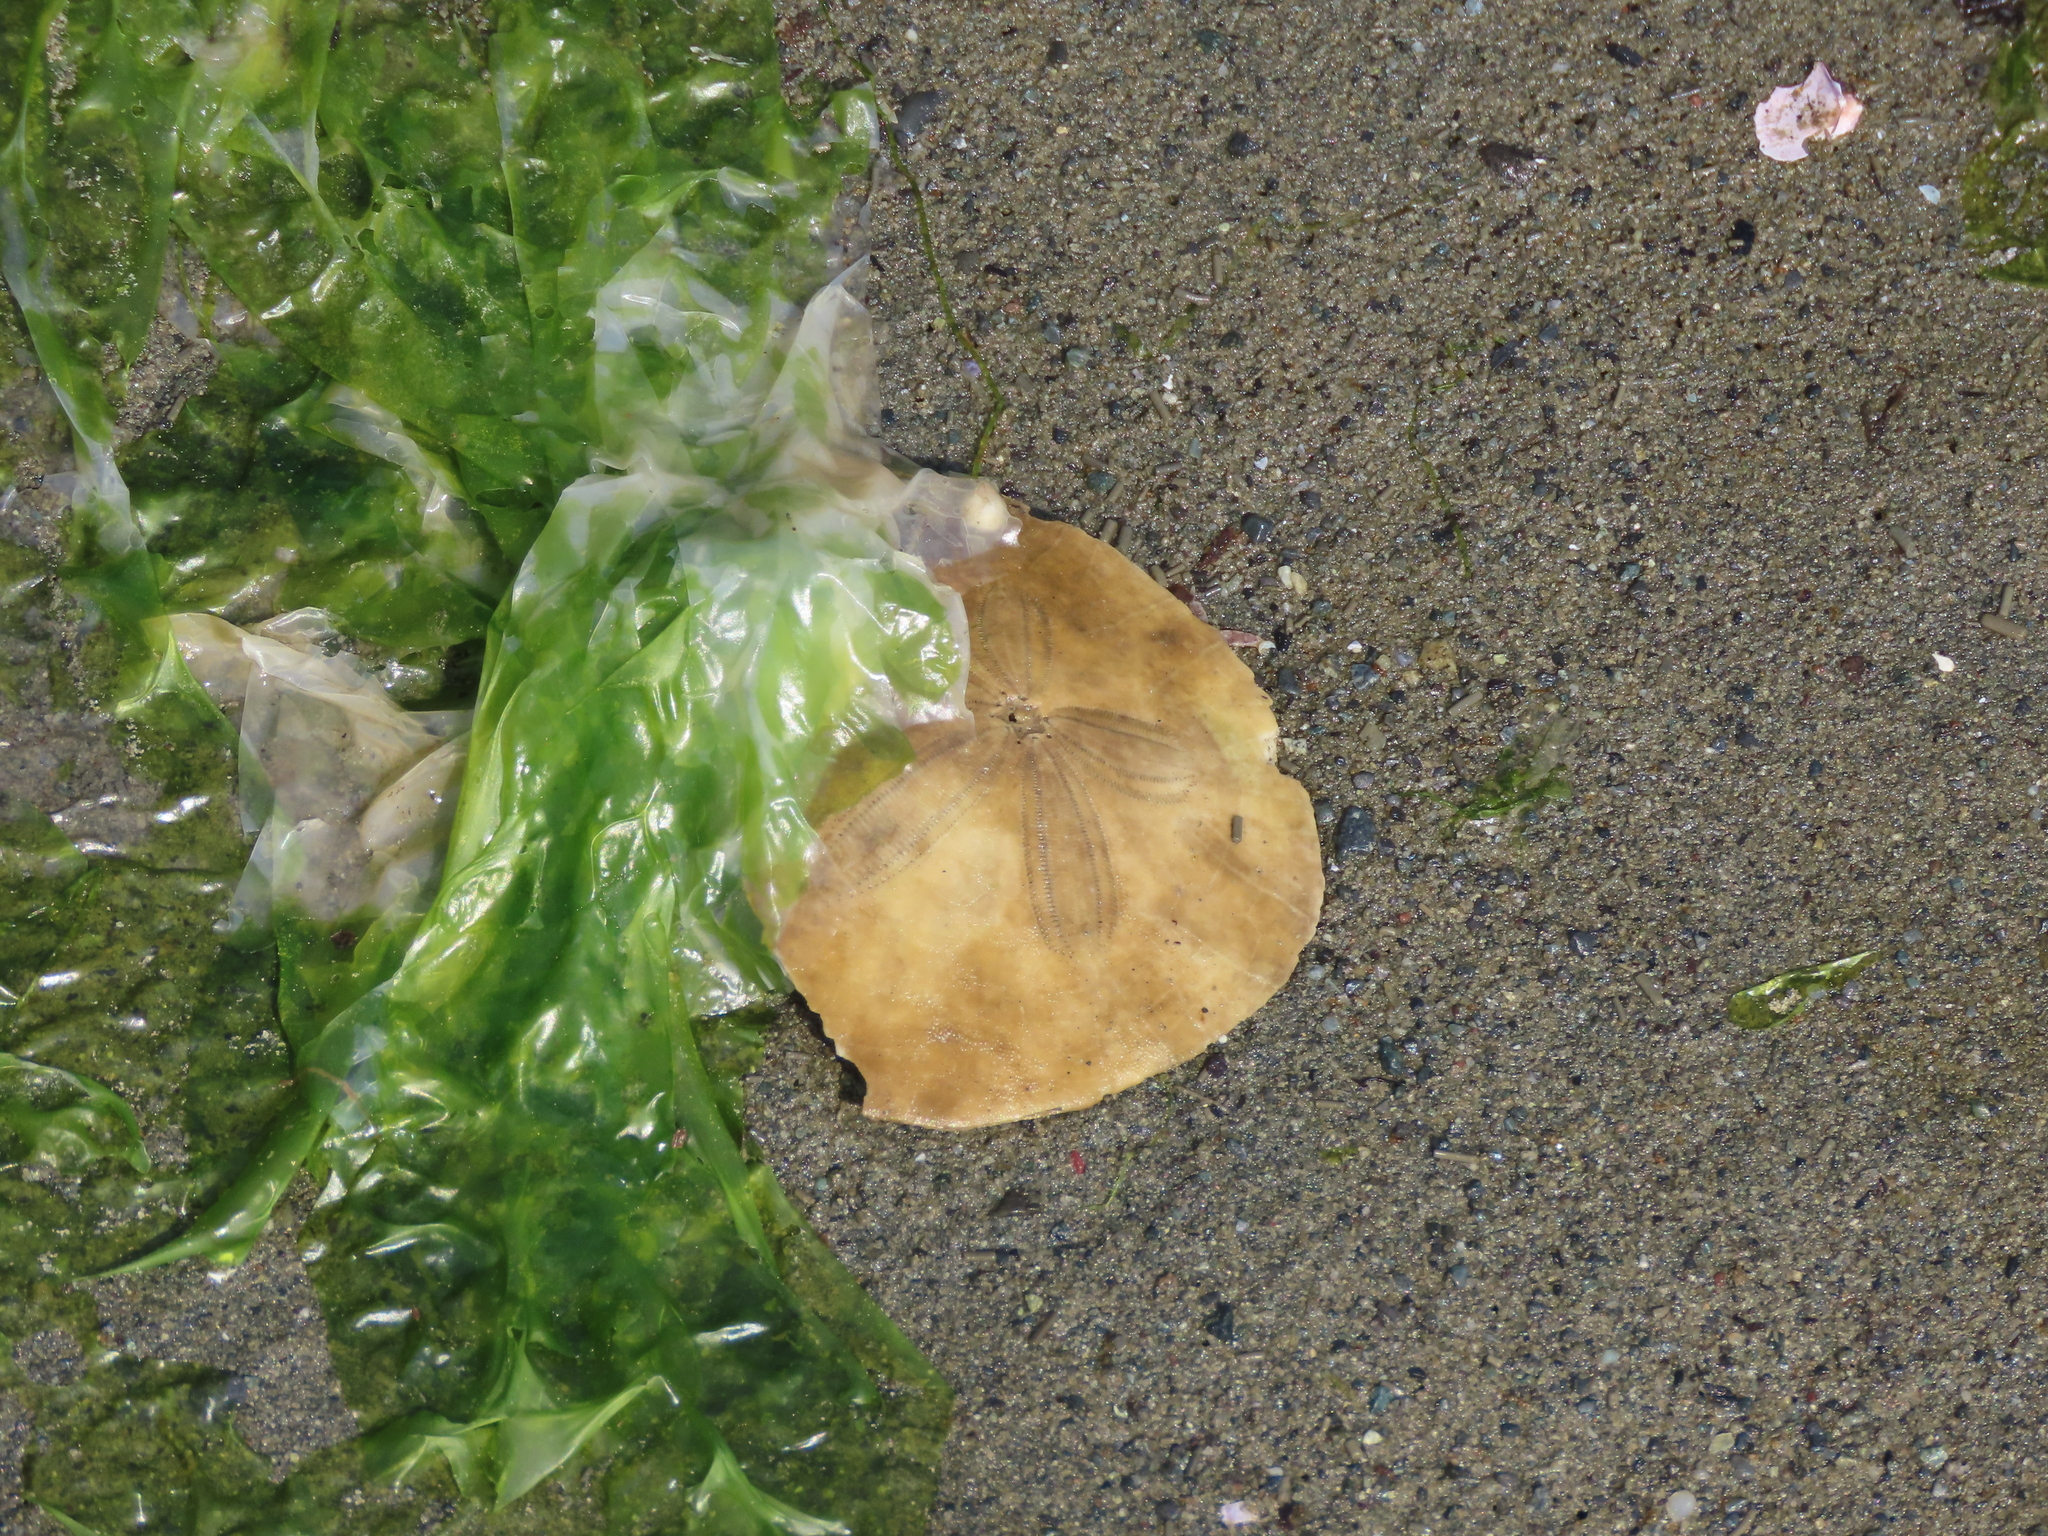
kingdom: Animalia
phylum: Echinodermata
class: Echinoidea
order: Echinolampadacea
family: Dendrasteridae
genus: Dendraster
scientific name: Dendraster excentricus
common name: Eccentric sand dollar sea urchin
